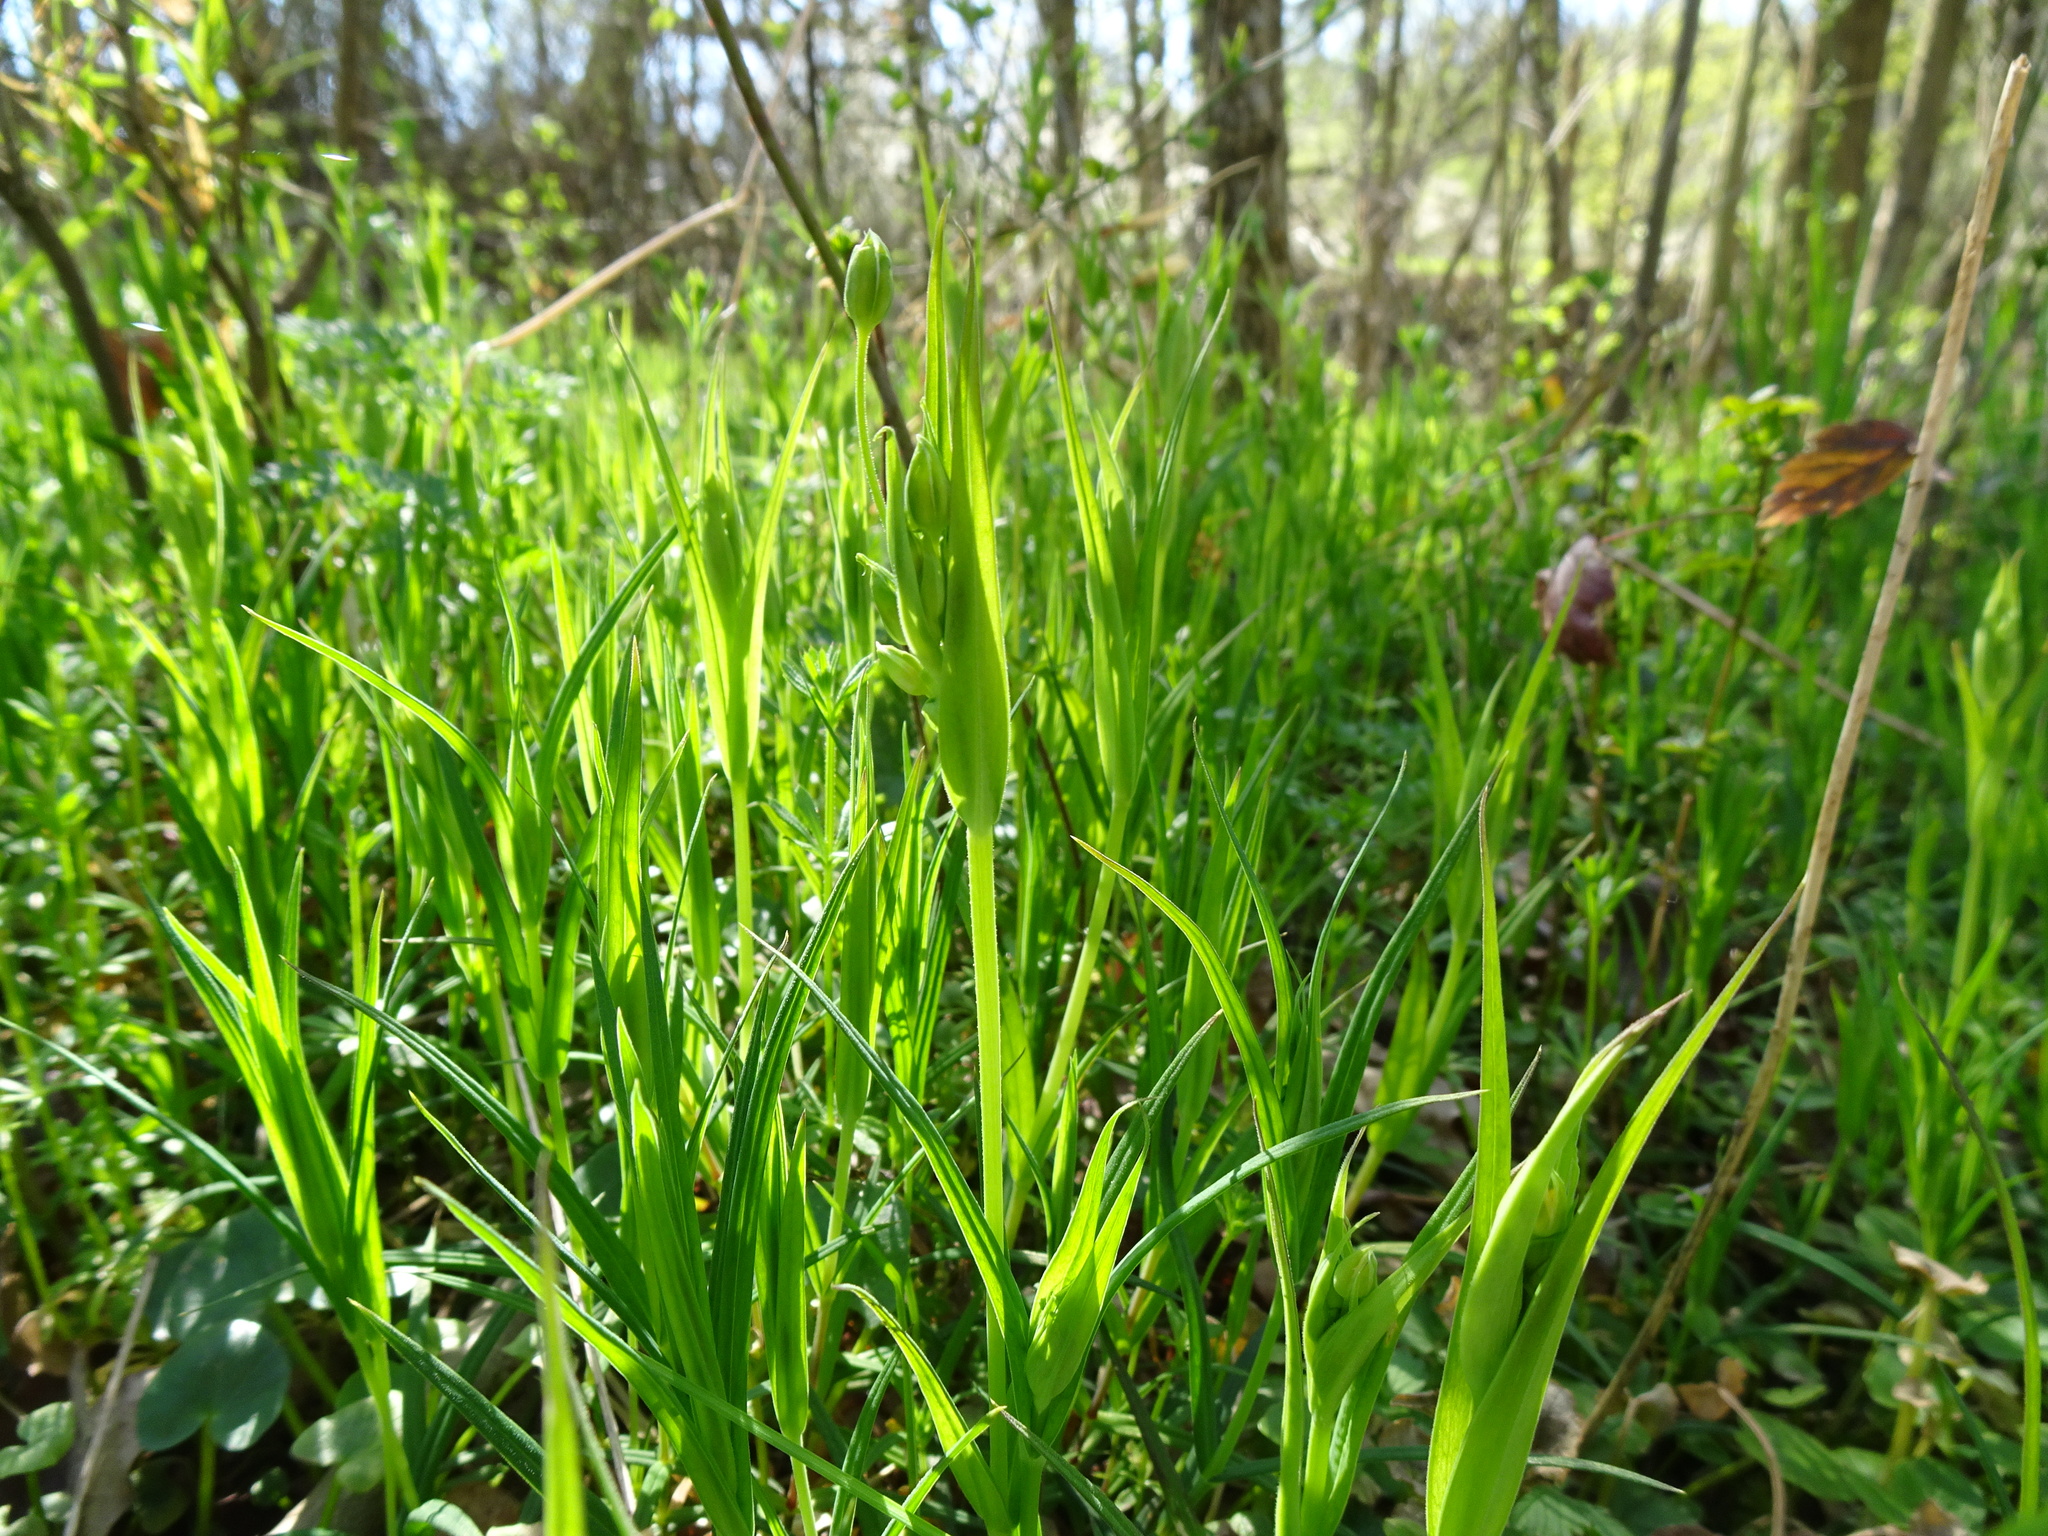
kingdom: Plantae
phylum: Tracheophyta
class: Magnoliopsida
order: Caryophyllales
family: Caryophyllaceae
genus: Rabelera
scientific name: Rabelera holostea
